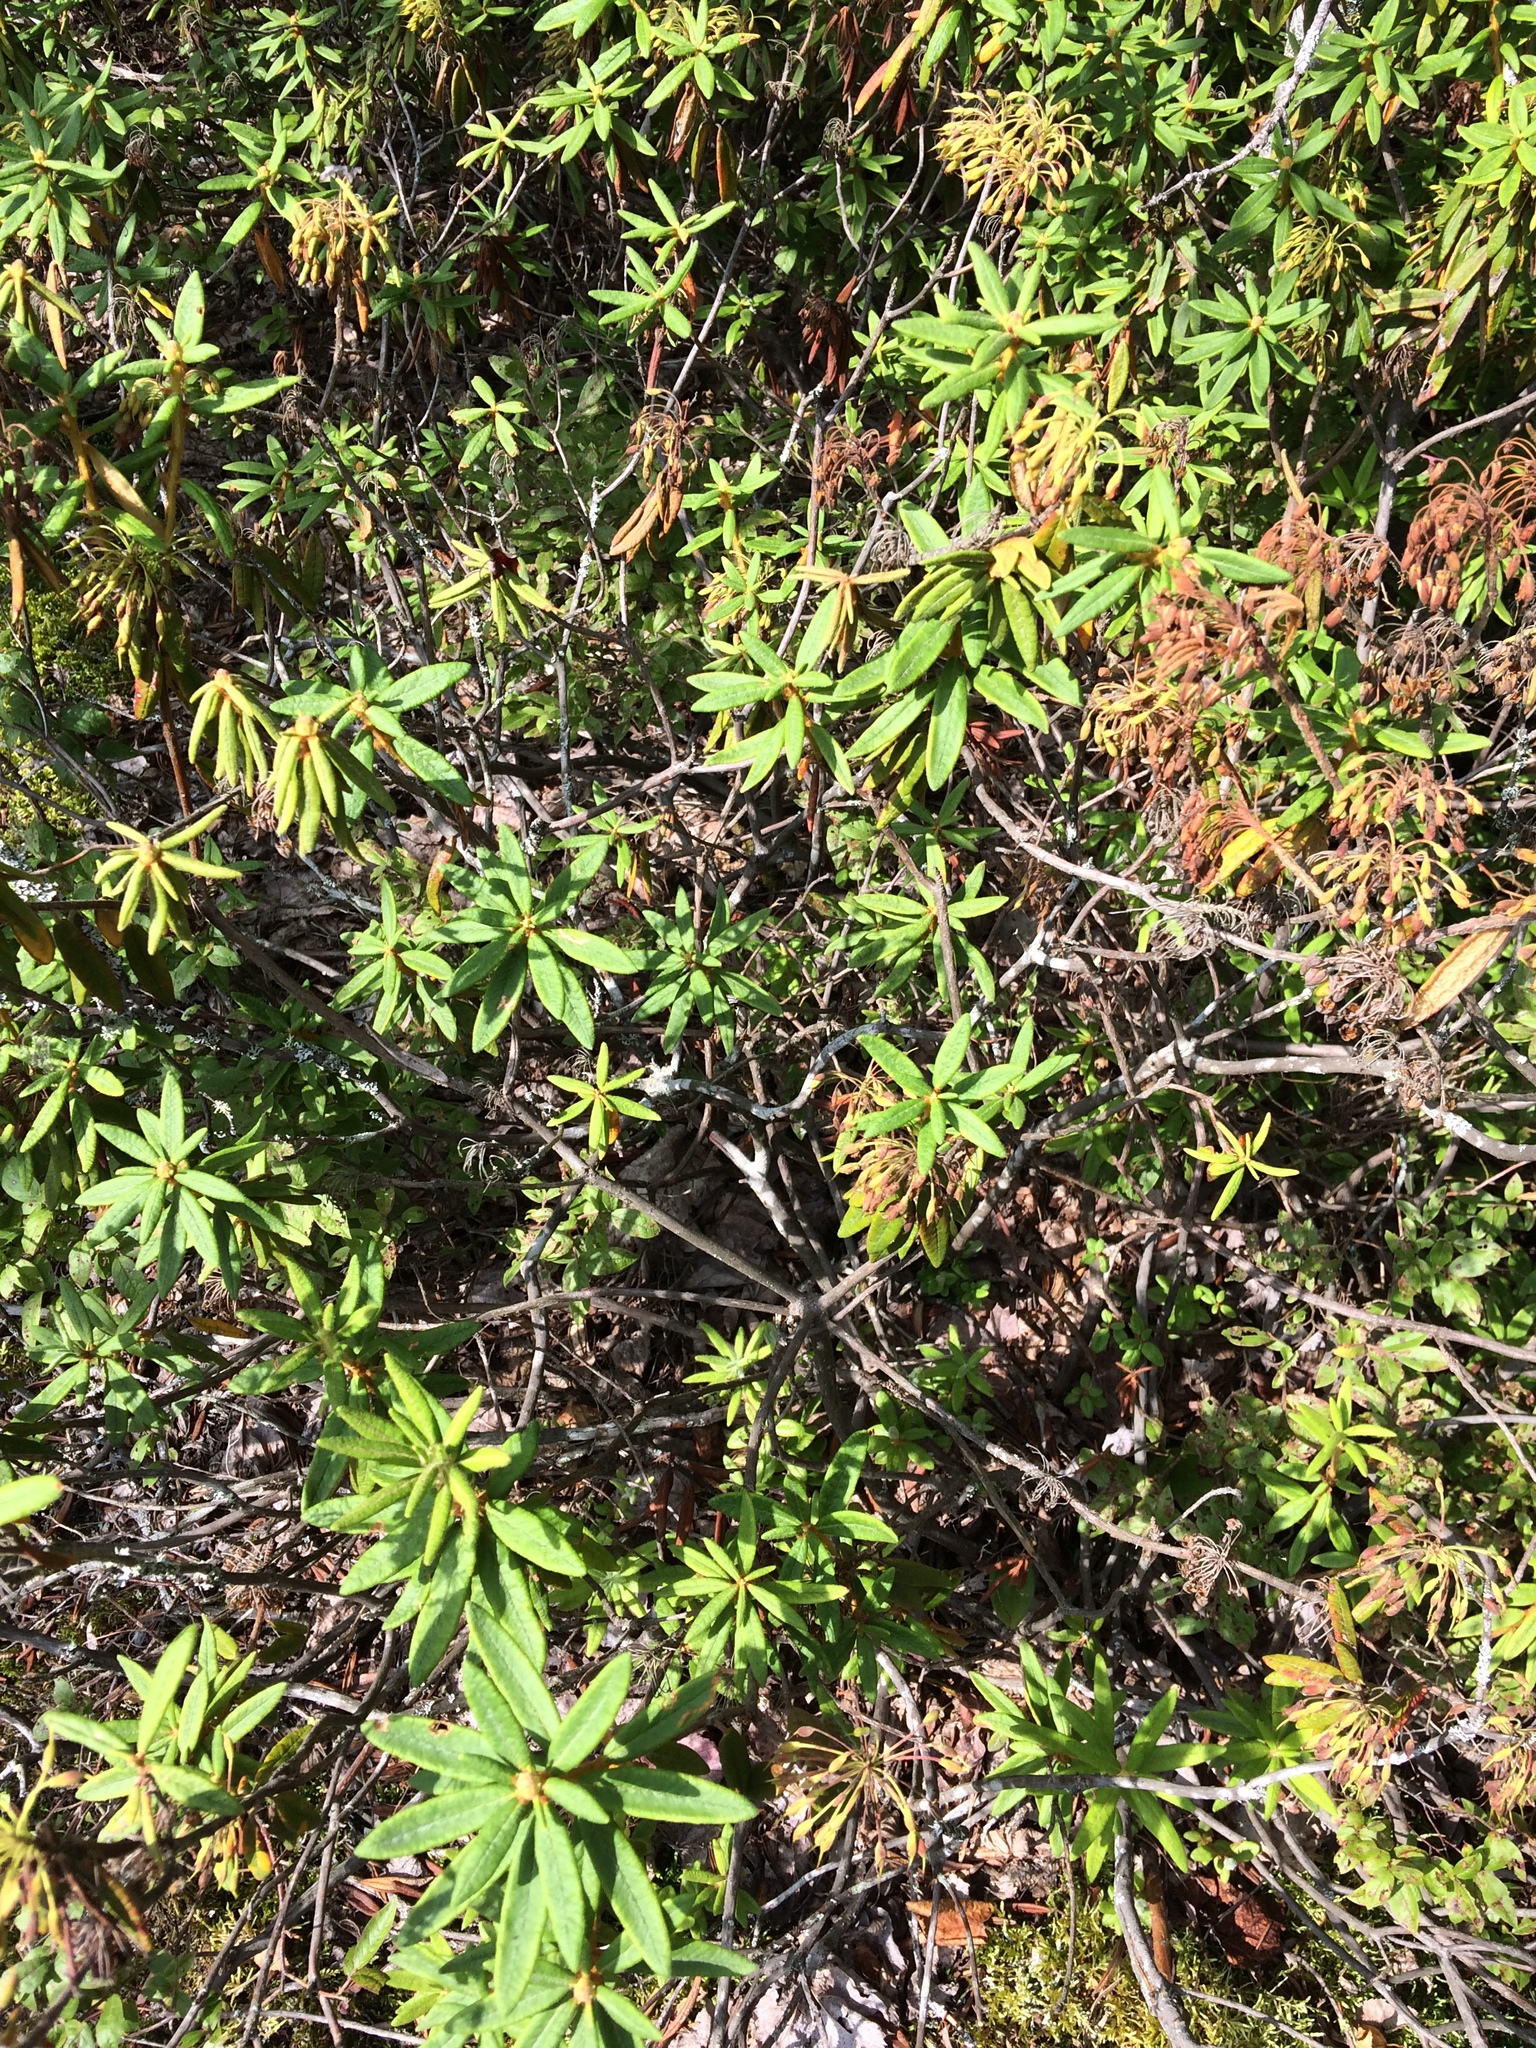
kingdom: Plantae
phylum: Tracheophyta
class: Magnoliopsida
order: Ericales
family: Ericaceae
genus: Rhododendron
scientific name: Rhododendron groenlandicum
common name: Bog labrador tea
